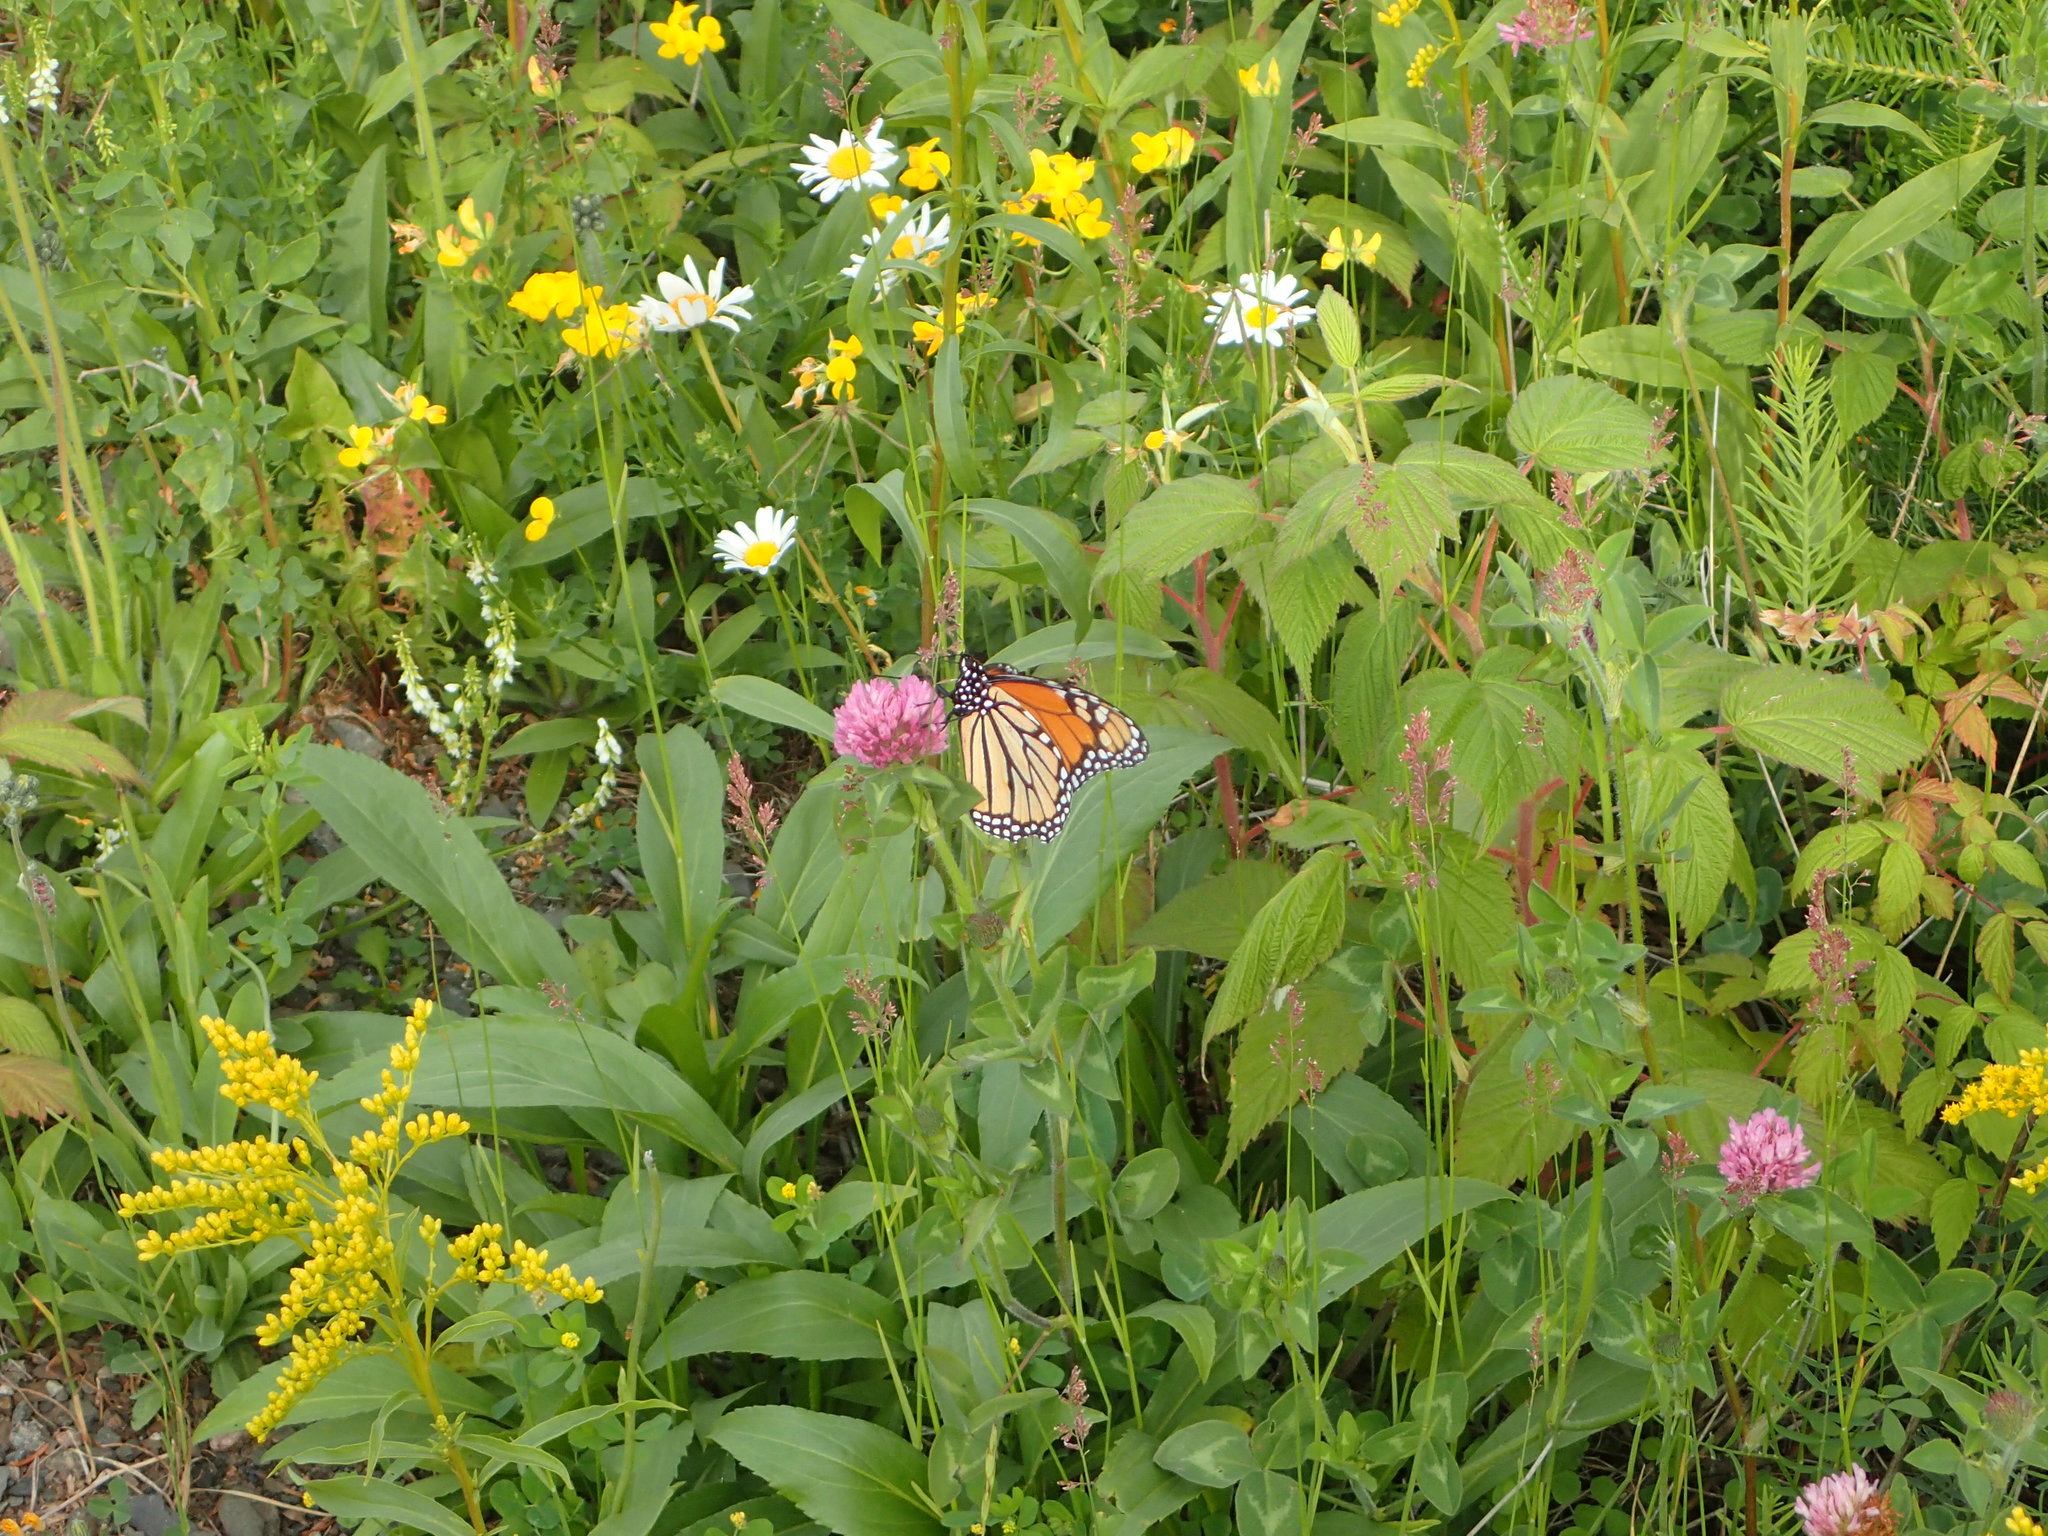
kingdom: Animalia
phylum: Arthropoda
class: Insecta
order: Lepidoptera
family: Nymphalidae
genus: Danaus
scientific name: Danaus plexippus
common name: Monarch
